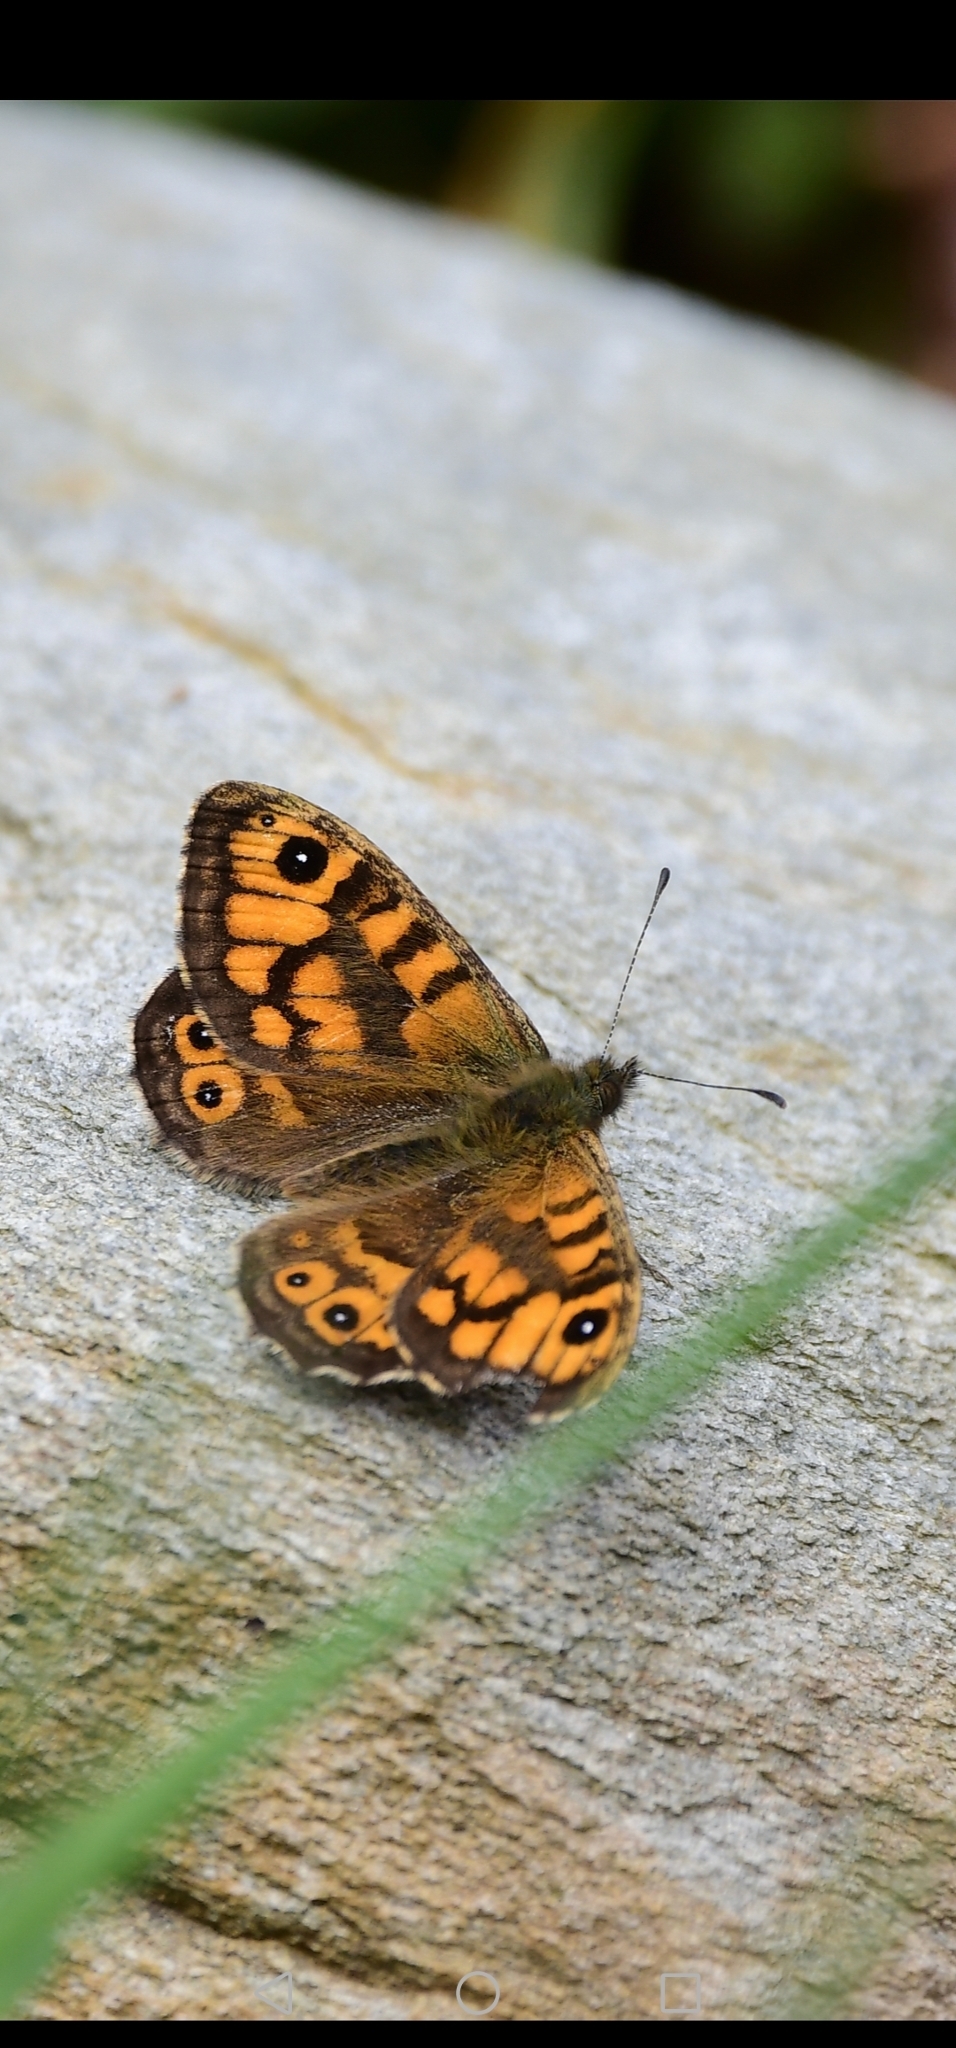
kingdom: Animalia
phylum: Arthropoda
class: Insecta
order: Lepidoptera
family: Nymphalidae
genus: Pararge
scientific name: Pararge Lasiommata megera
